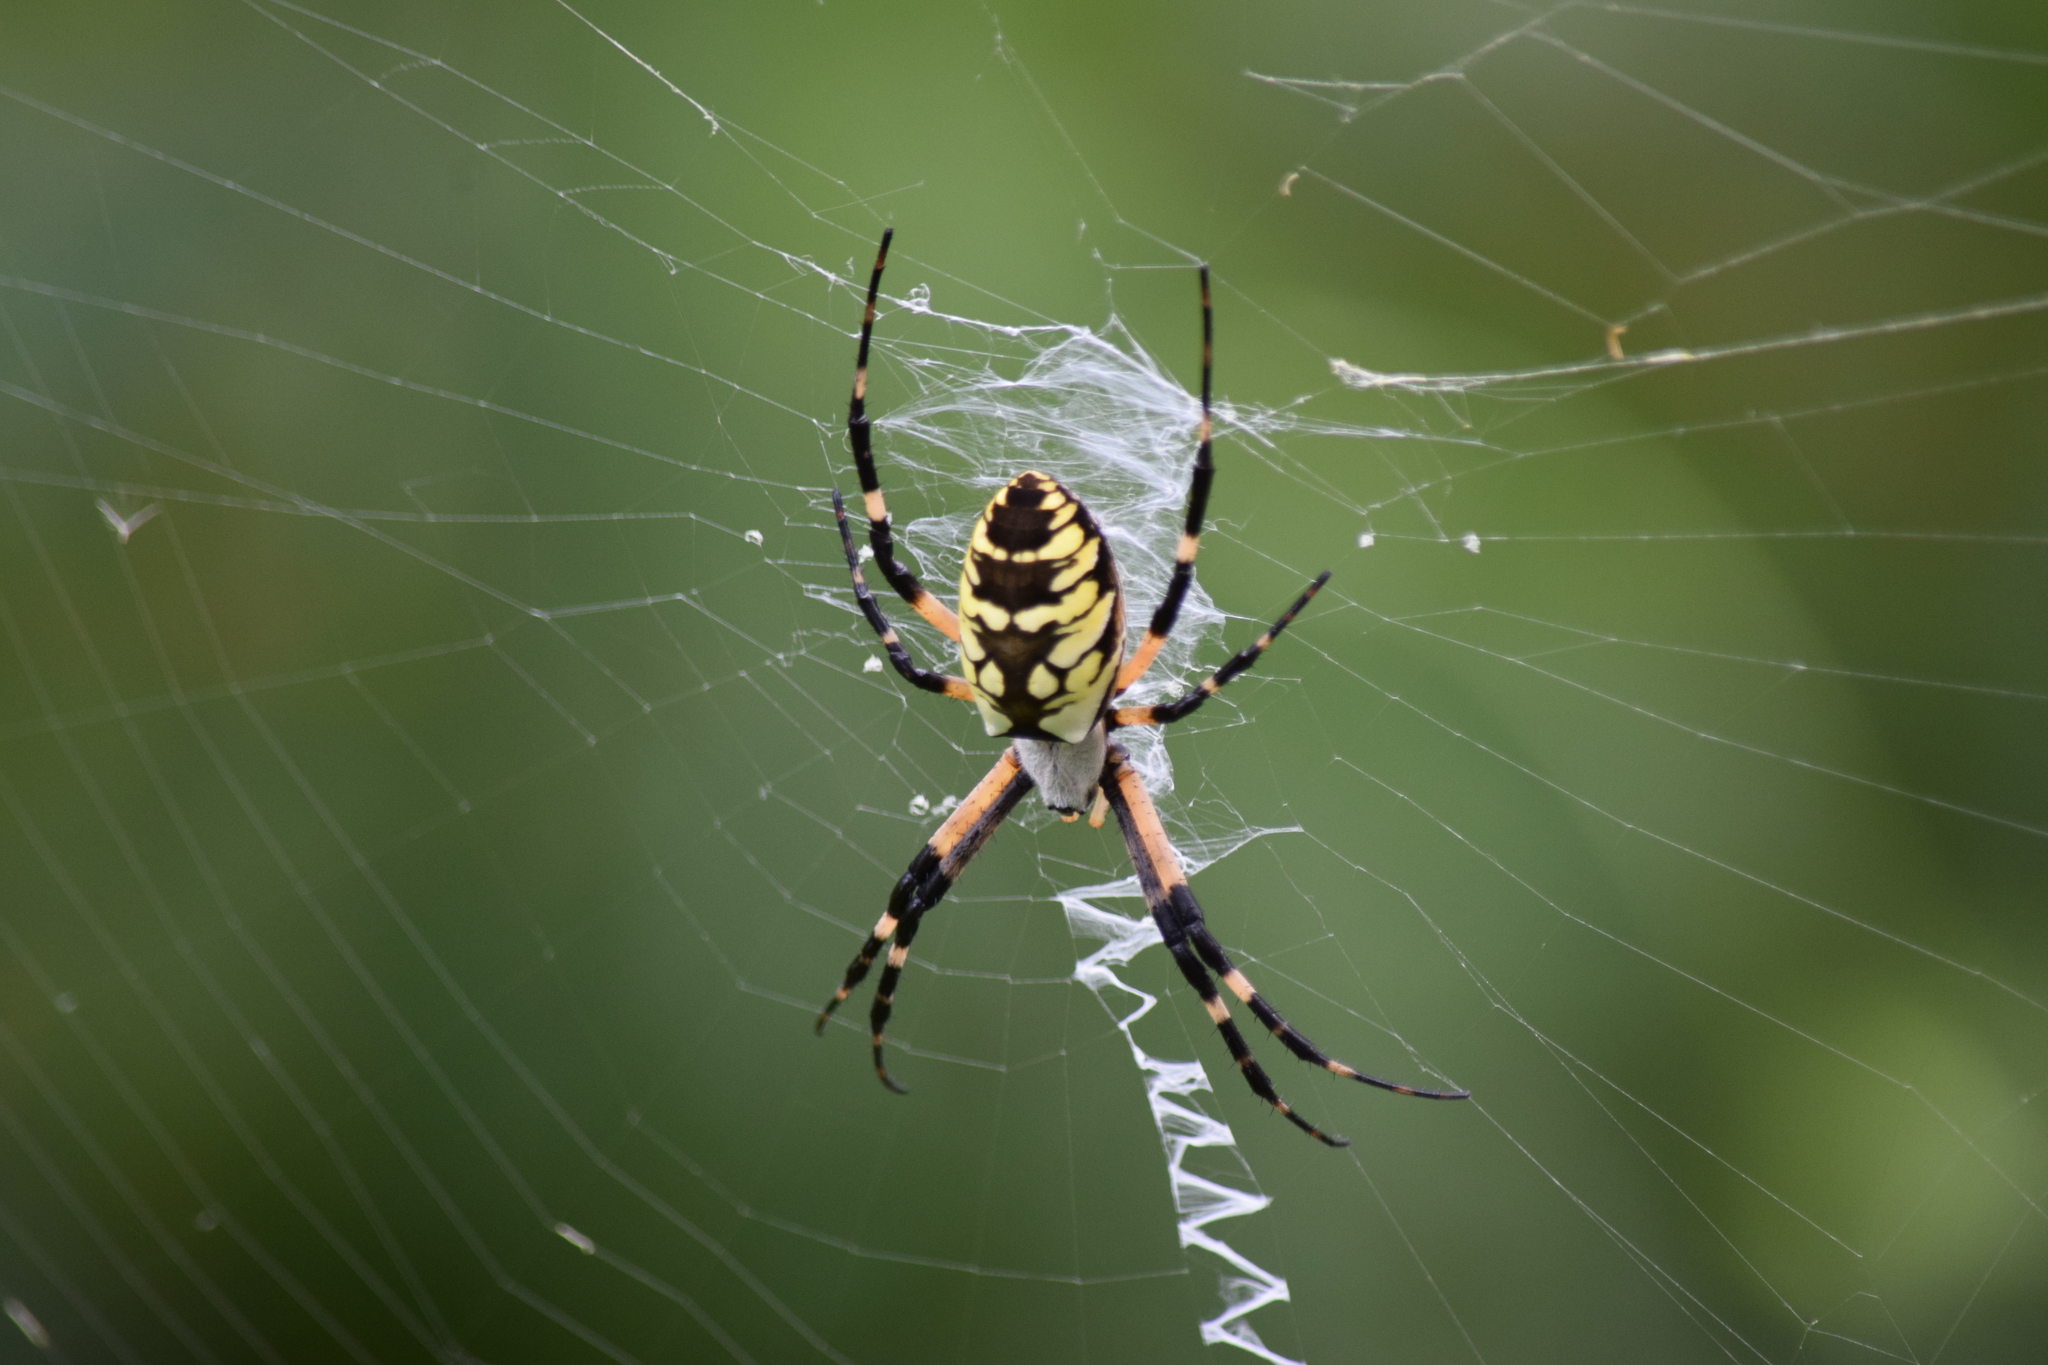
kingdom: Animalia
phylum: Arthropoda
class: Arachnida
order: Araneae
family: Araneidae
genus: Argiope
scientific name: Argiope aurantia
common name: Orb weavers
